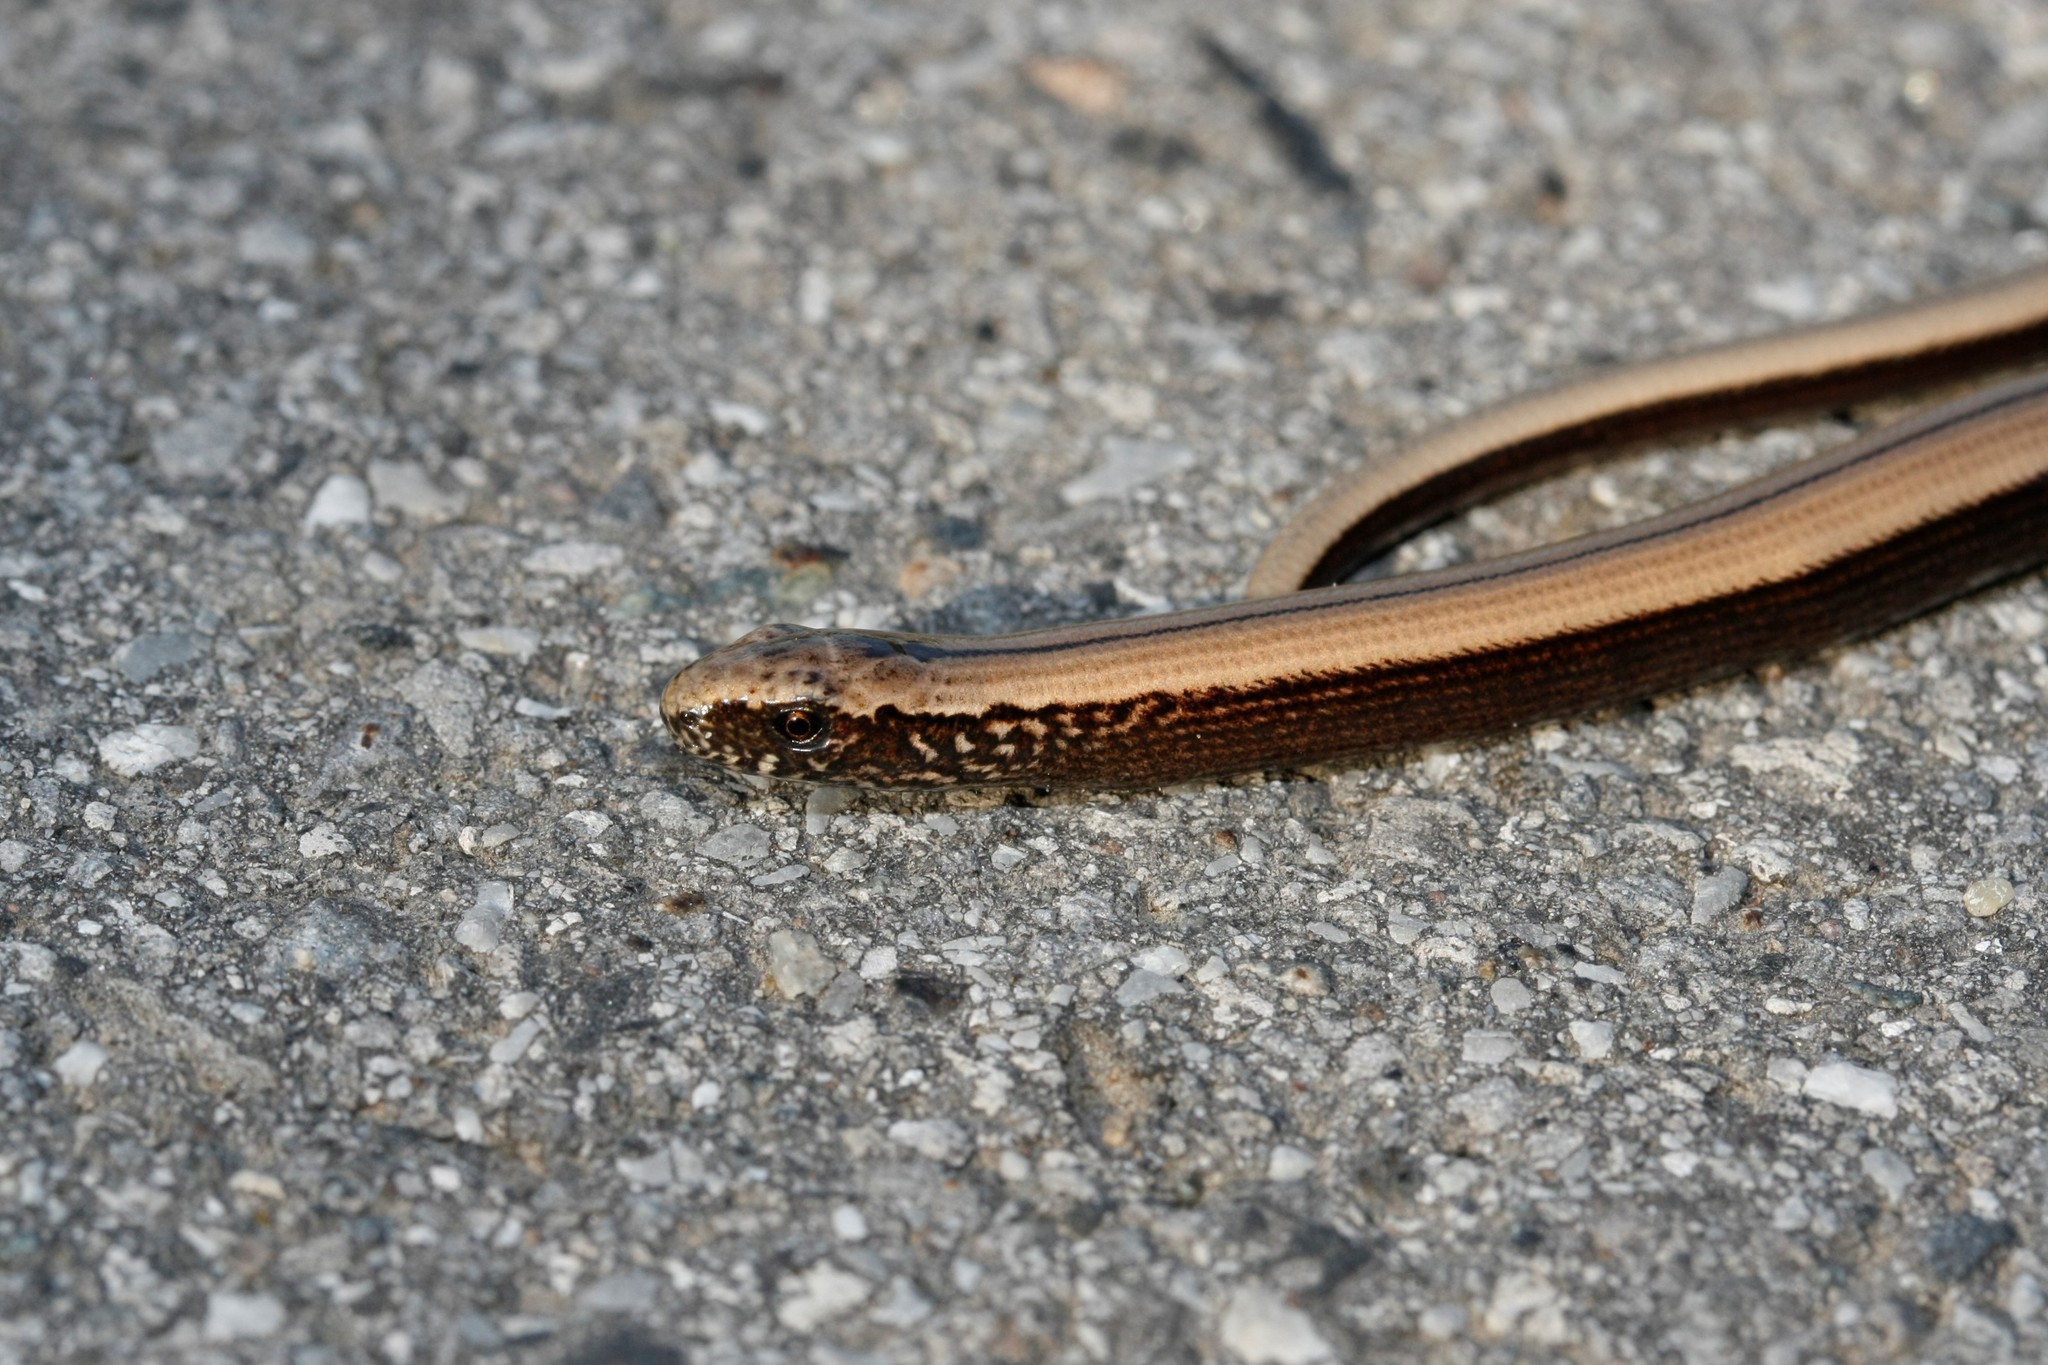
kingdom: Animalia
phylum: Chordata
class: Squamata
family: Anguidae
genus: Anguis
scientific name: Anguis fragilis
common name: Slow worm
